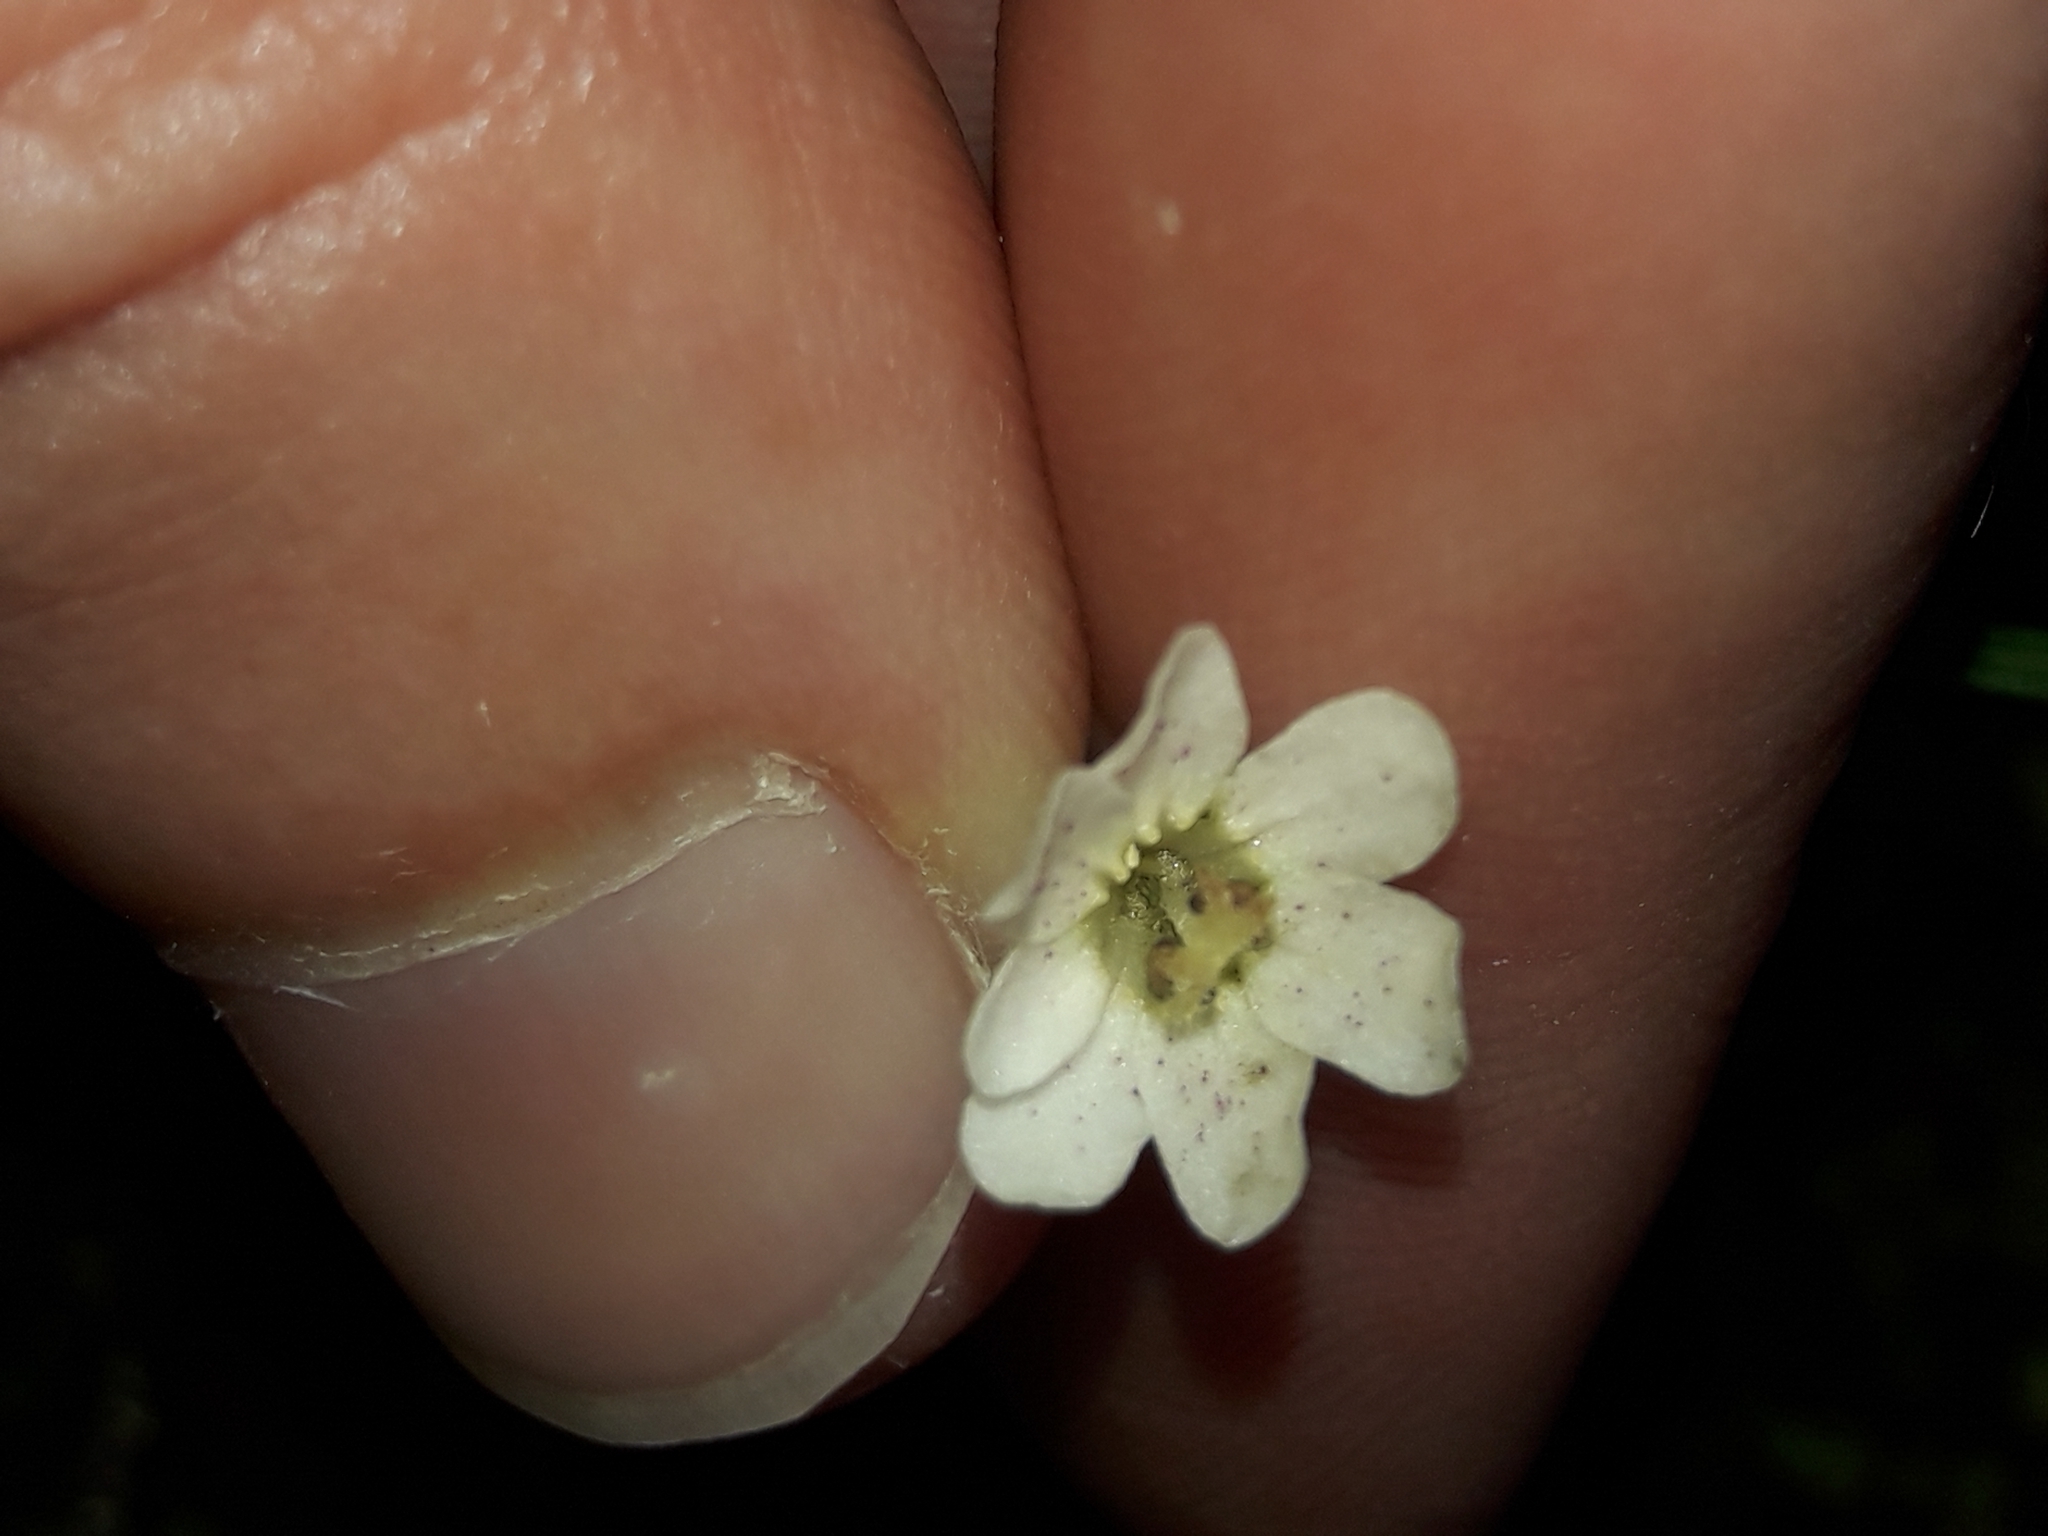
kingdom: Plantae
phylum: Tracheophyta
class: Magnoliopsida
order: Asterales
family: Stylidiaceae
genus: Forstera
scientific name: Forstera tenella
